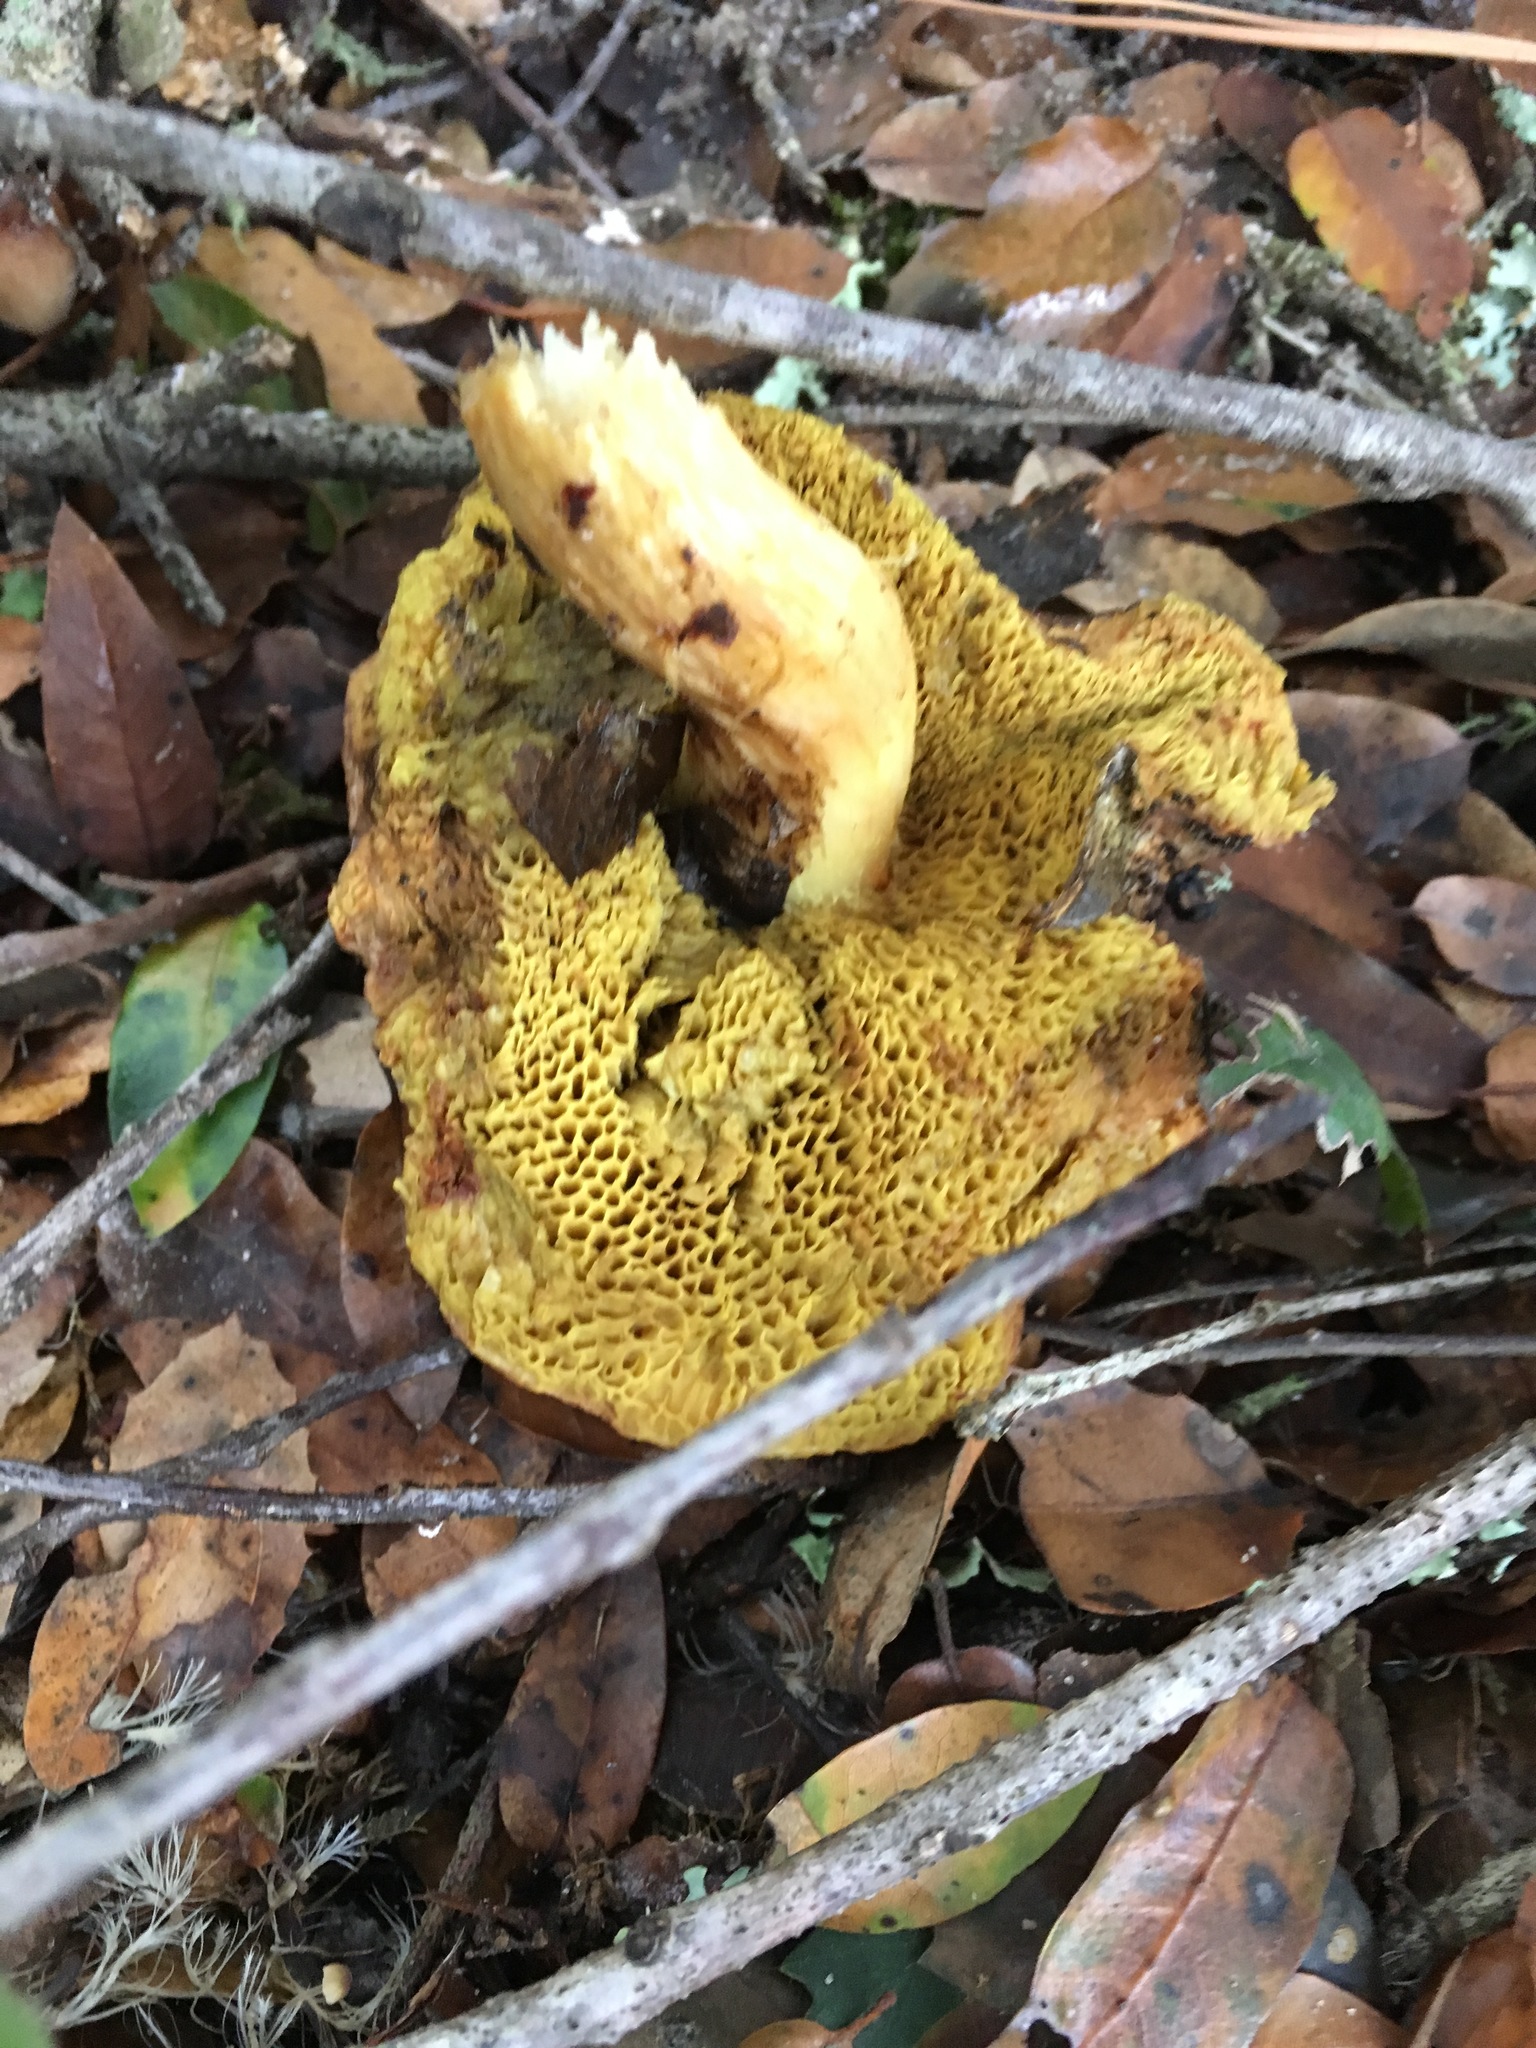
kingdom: Fungi
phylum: Basidiomycota
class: Agaricomycetes
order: Boletales
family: Boletaceae
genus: Xerocomus
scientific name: Xerocomus subtomentosus
